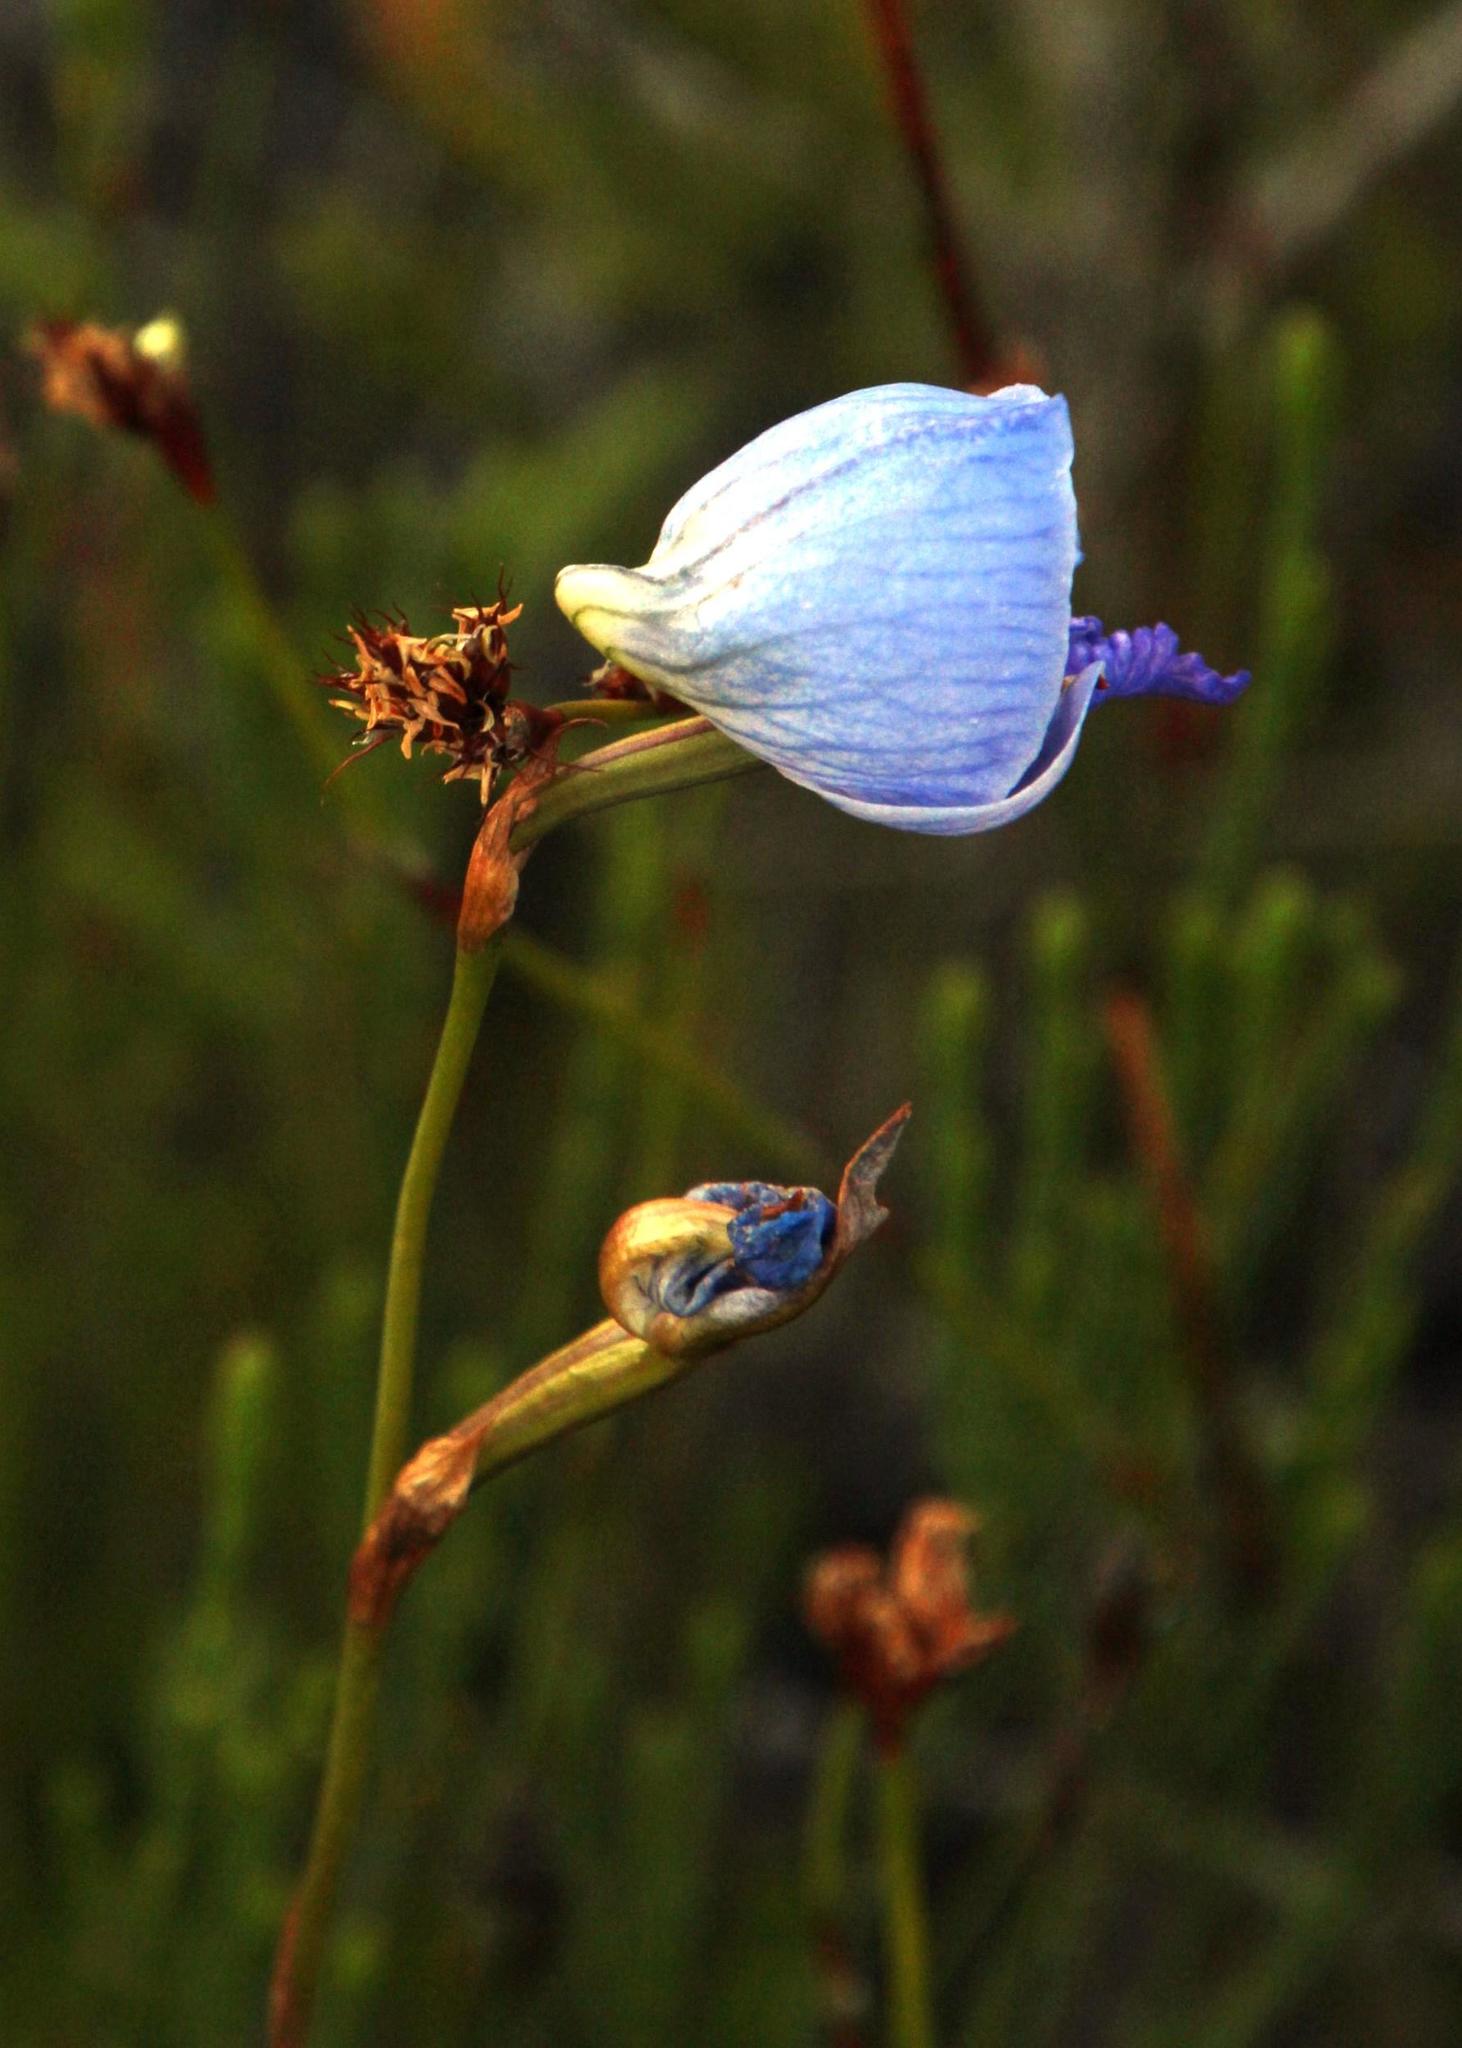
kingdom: Plantae
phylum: Tracheophyta
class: Liliopsida
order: Asparagales
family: Orchidaceae
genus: Disa
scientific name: Disa purpurascens
